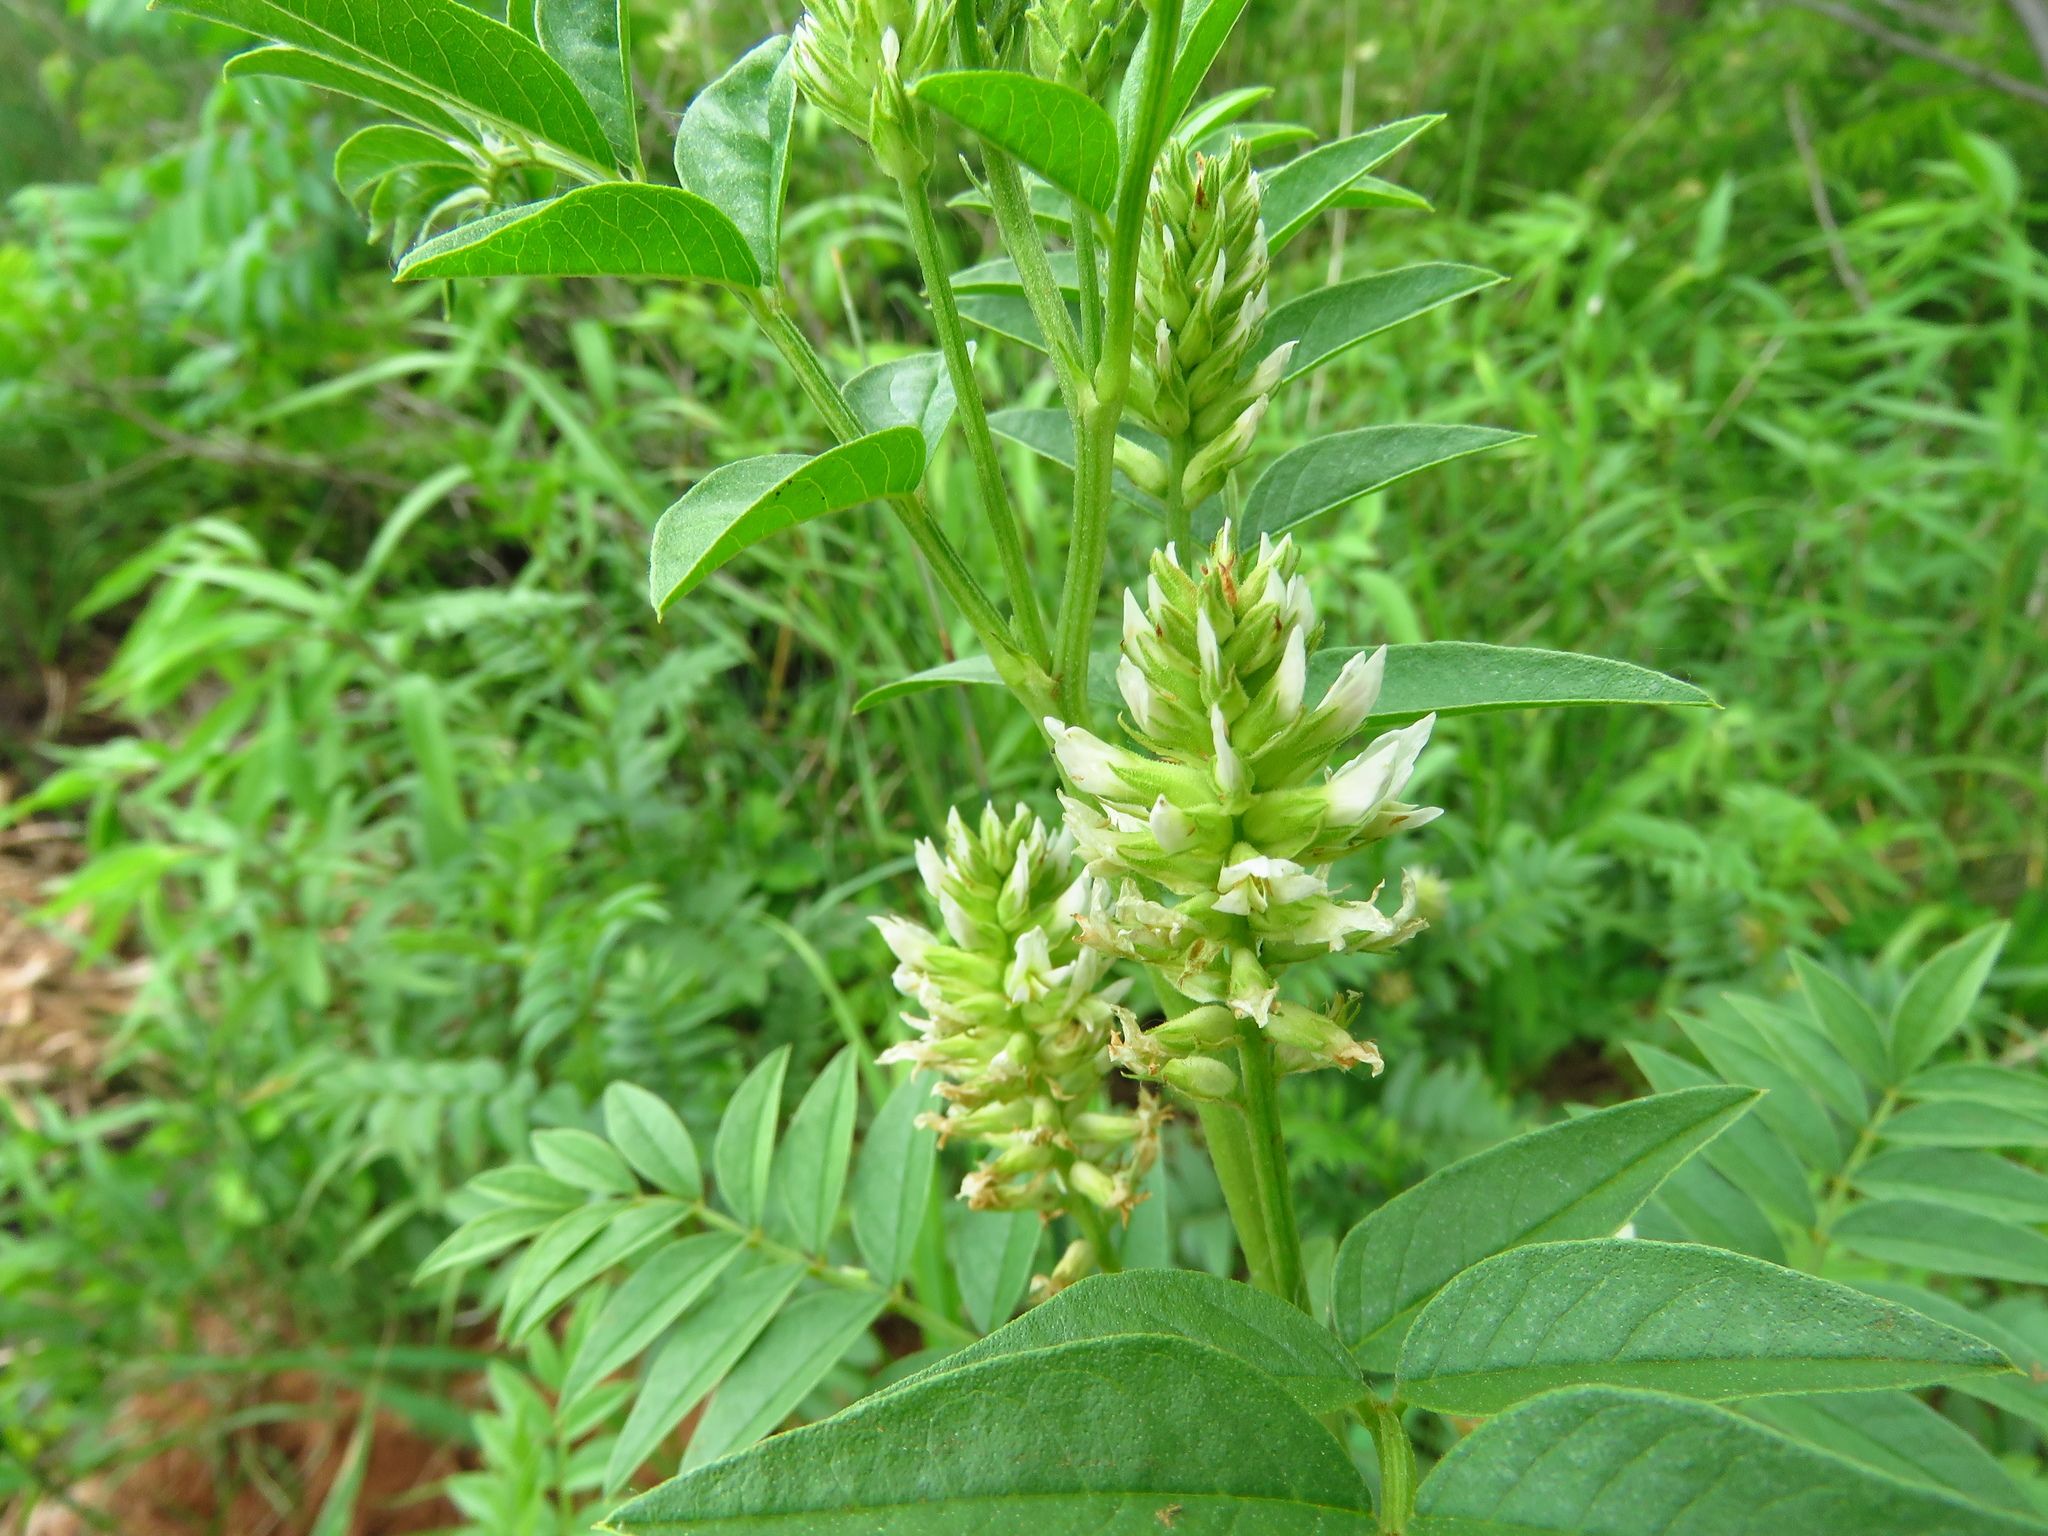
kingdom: Plantae
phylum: Tracheophyta
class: Magnoliopsida
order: Fabales
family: Fabaceae
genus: Glycyrrhiza
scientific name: Glycyrrhiza lepidota
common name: American liquorice
